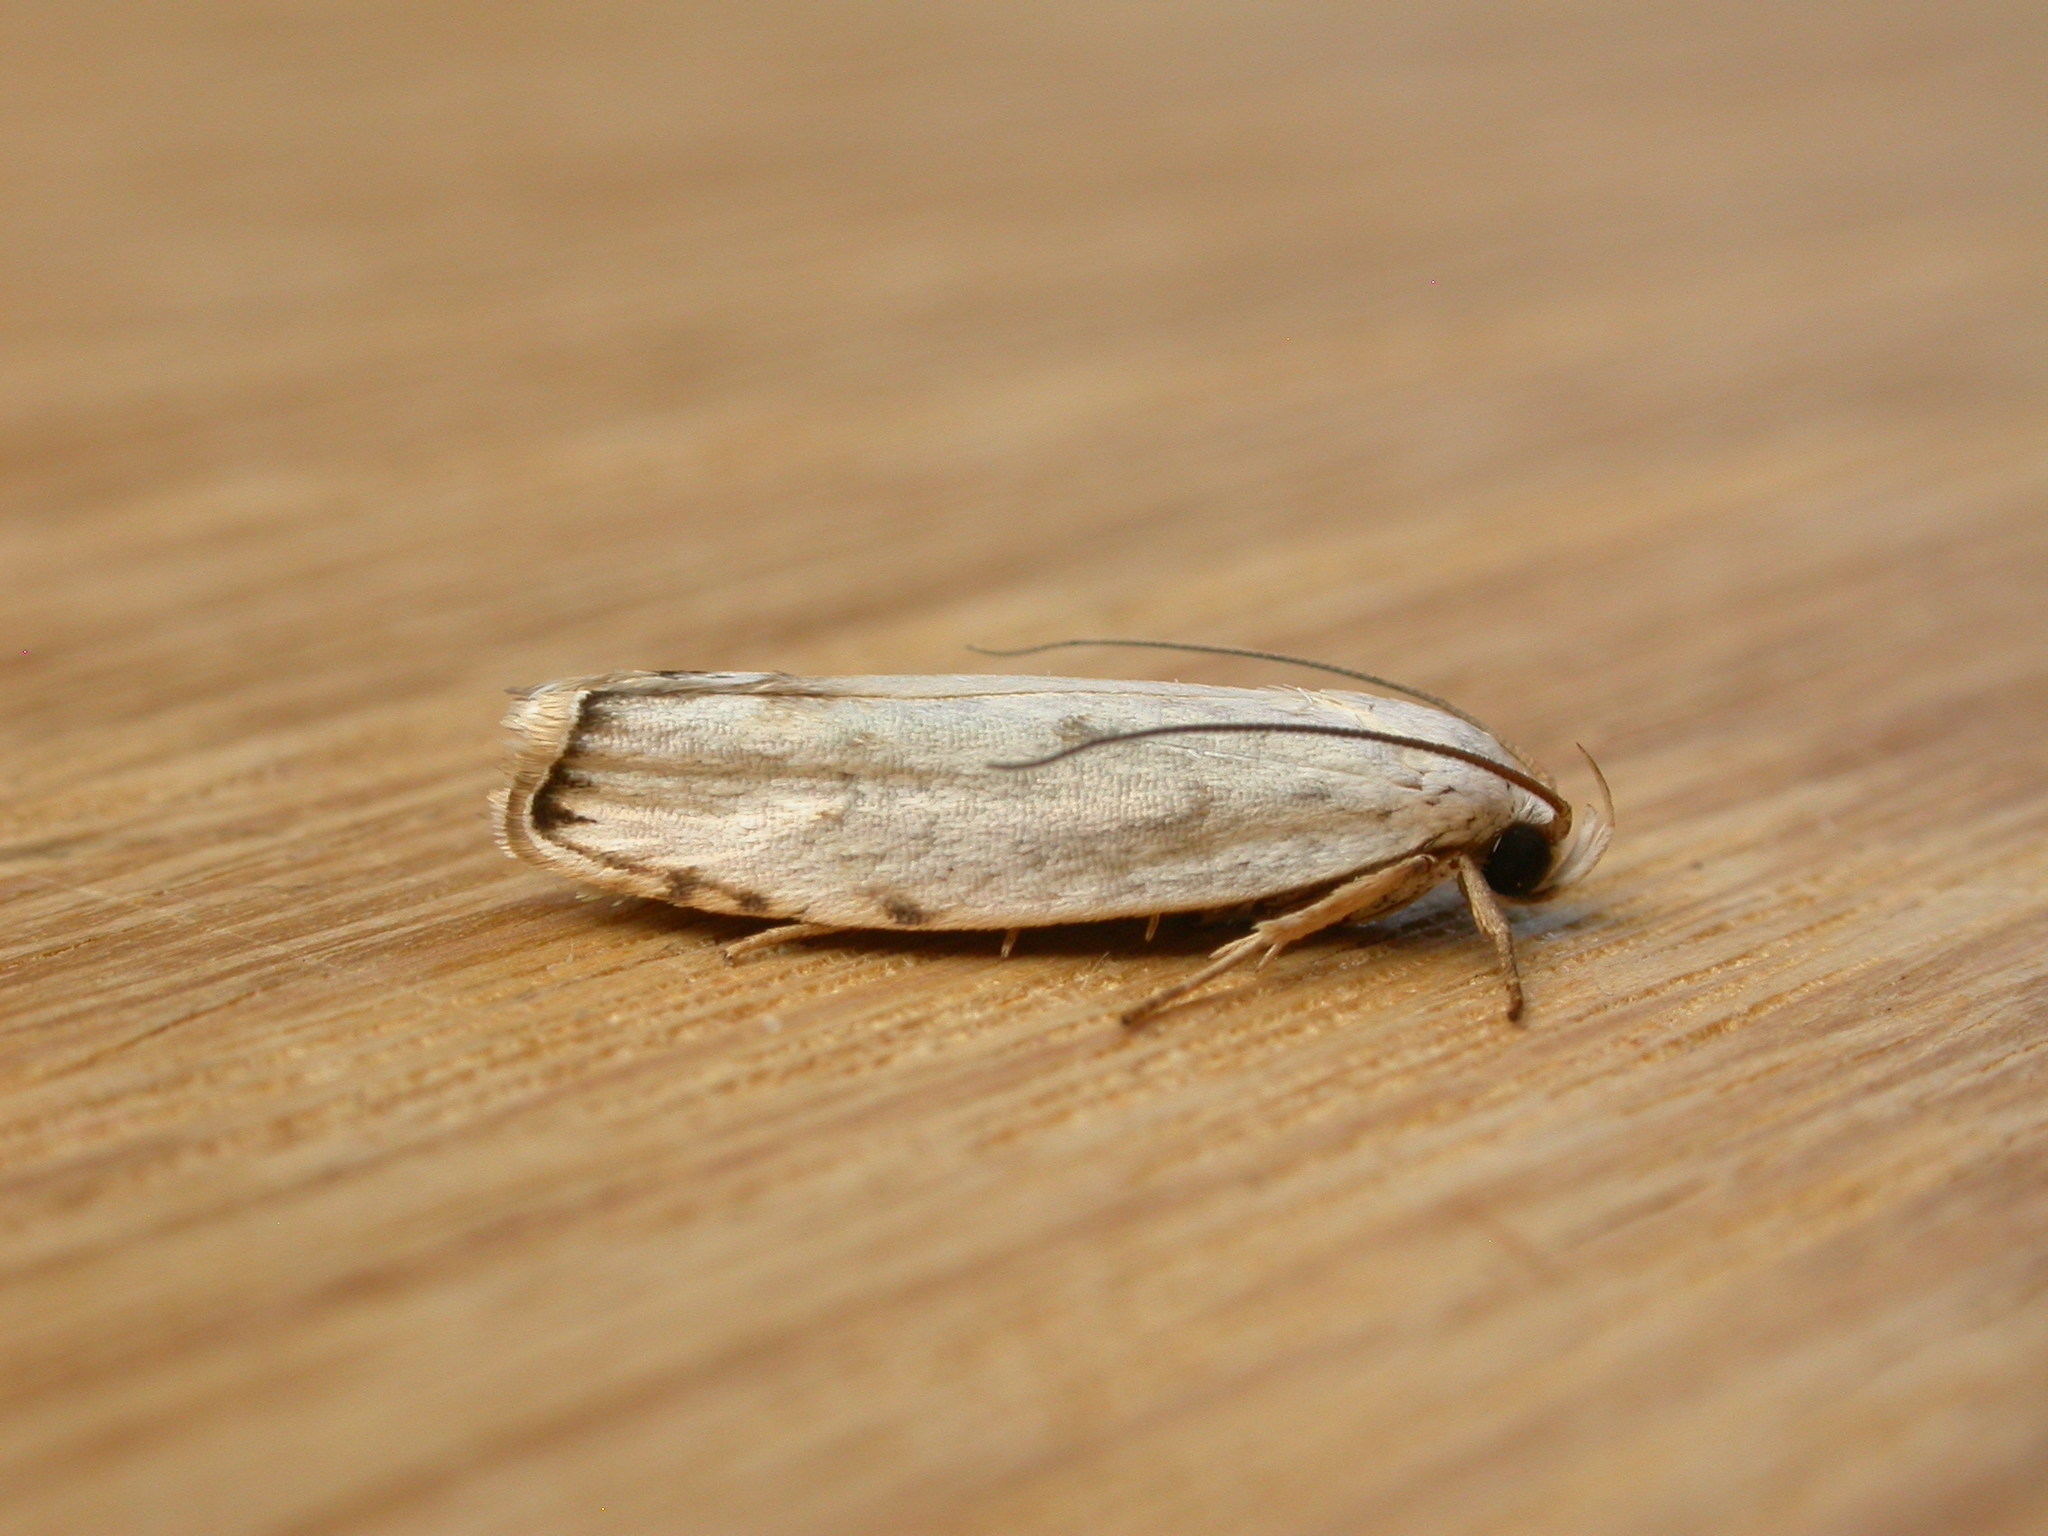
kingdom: Animalia
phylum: Arthropoda
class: Insecta
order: Lepidoptera
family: Xyloryctidae
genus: Plectophila
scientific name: Plectophila discalis
